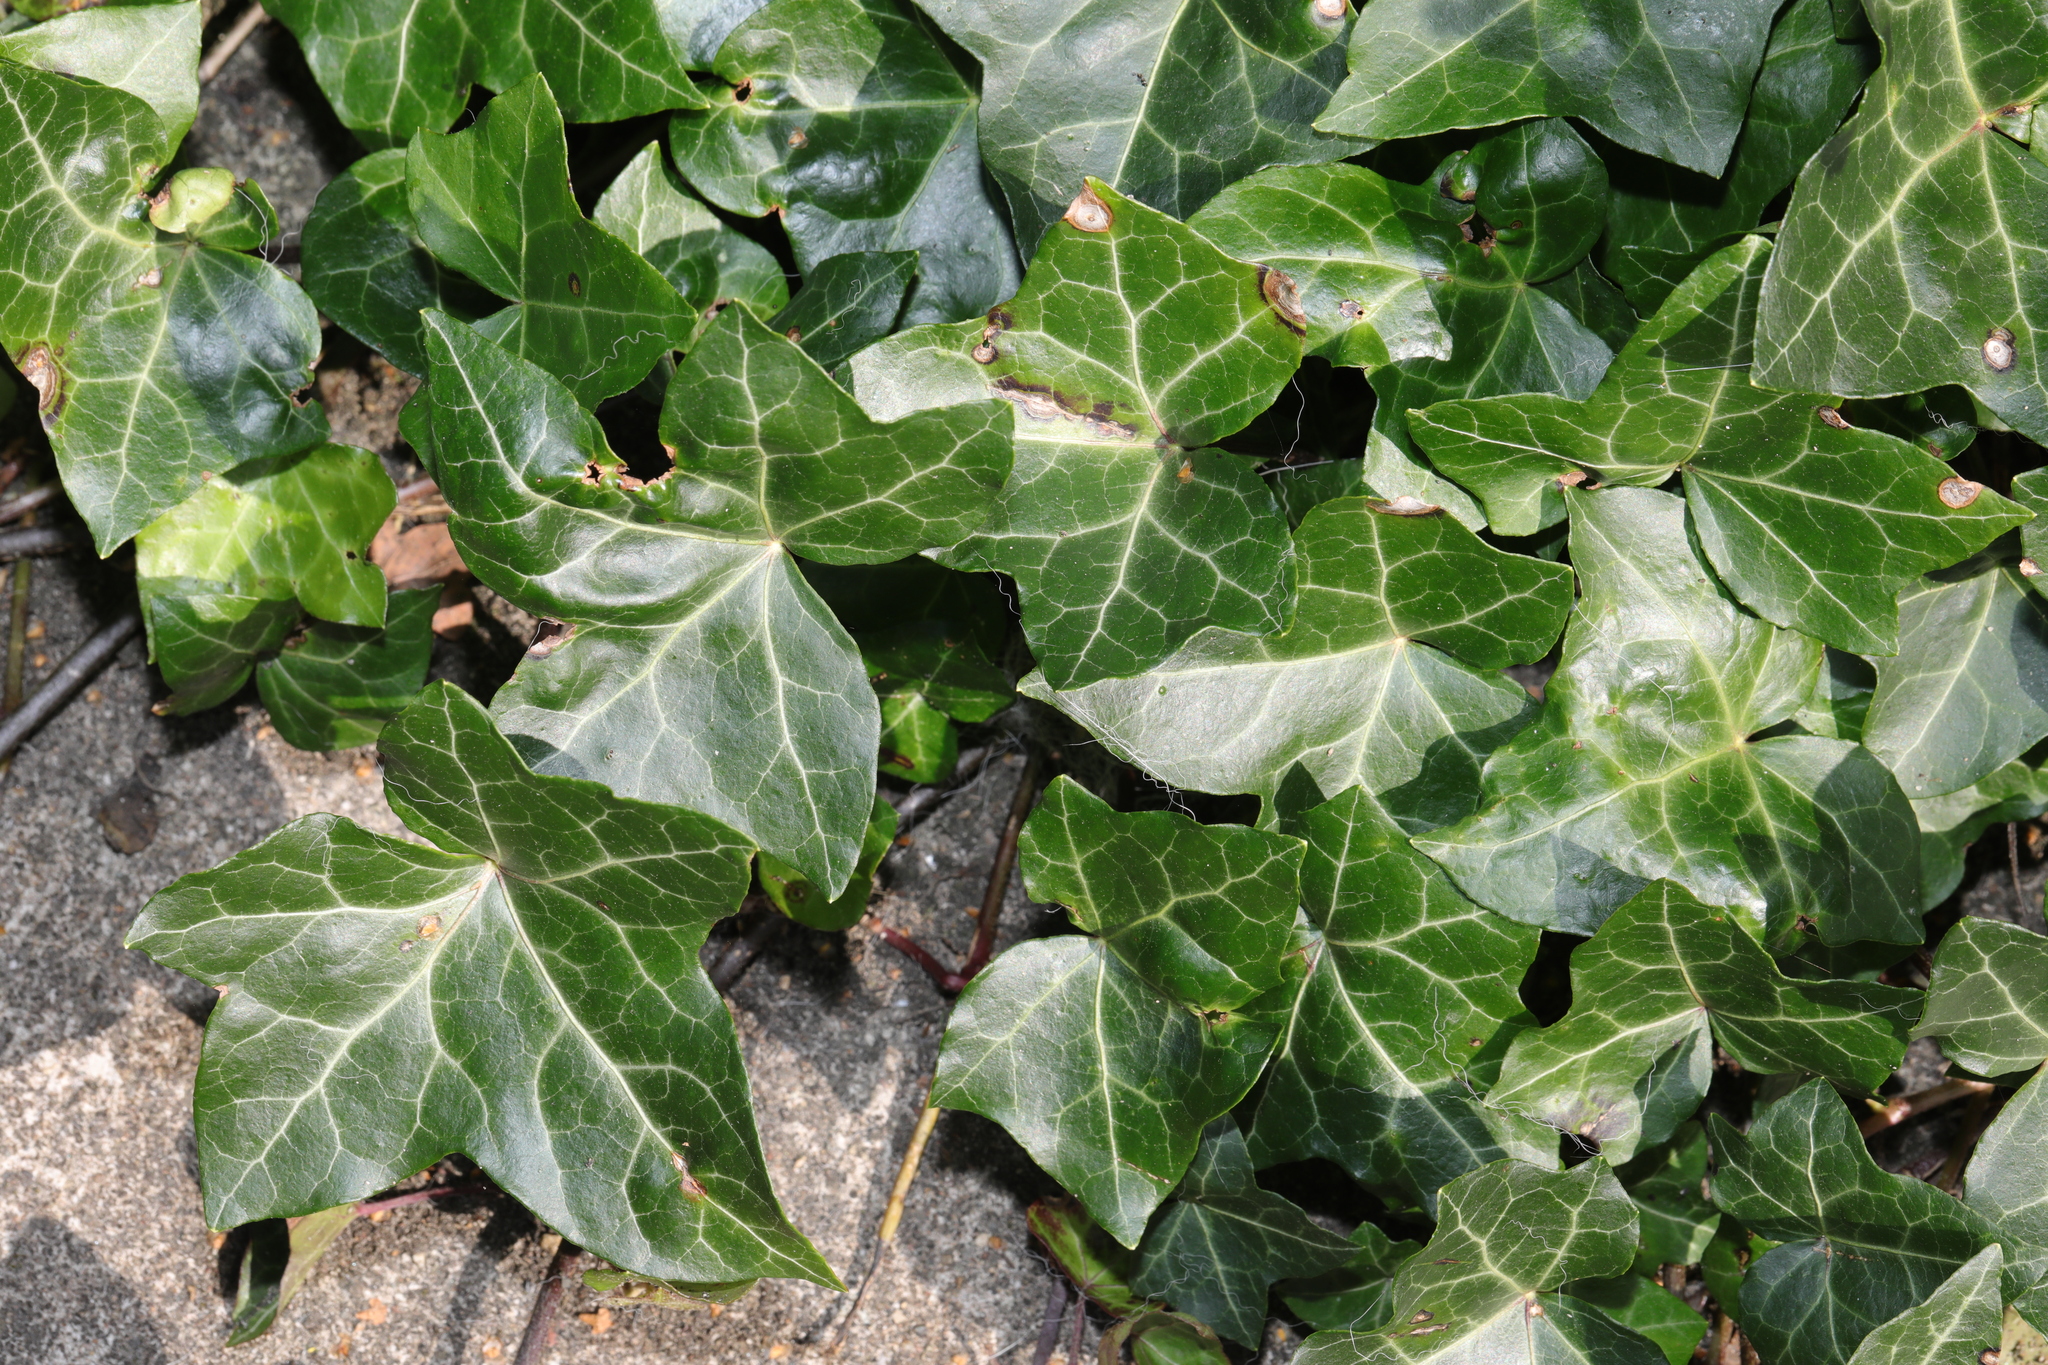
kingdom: Plantae
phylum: Tracheophyta
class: Magnoliopsida
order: Apiales
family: Araliaceae
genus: Hedera
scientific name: Hedera helix
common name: Ivy
